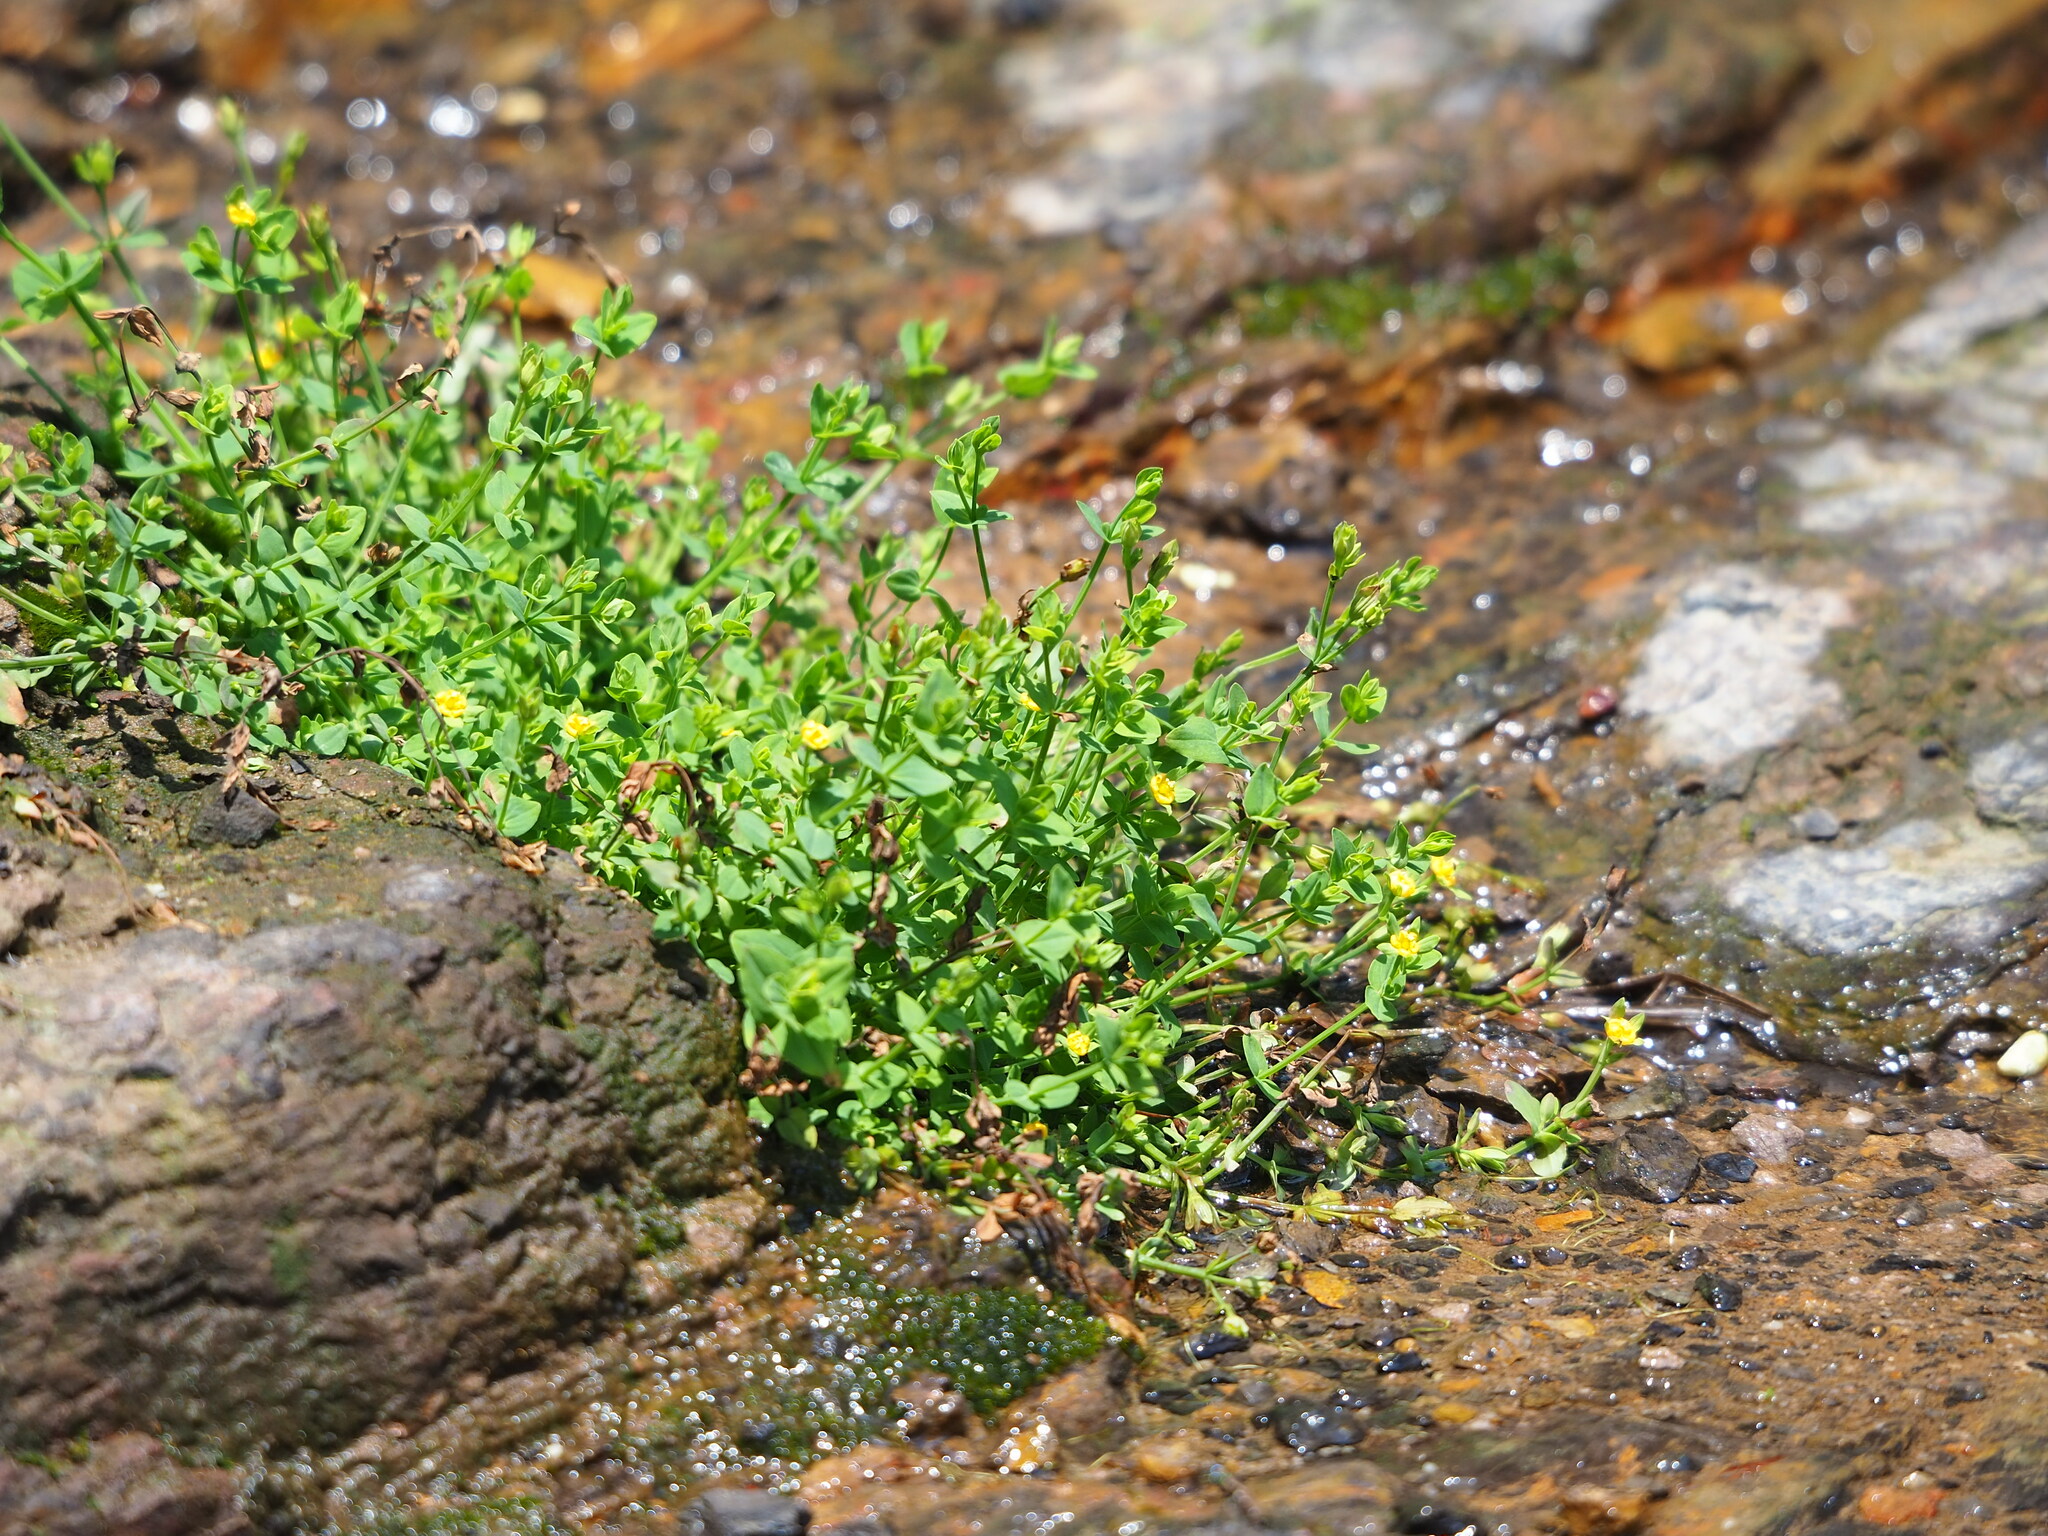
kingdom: Plantae
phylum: Tracheophyta
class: Magnoliopsida
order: Malpighiales
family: Hypericaceae
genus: Hypericum
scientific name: Hypericum japonicum
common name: Matted st. john's-wort
